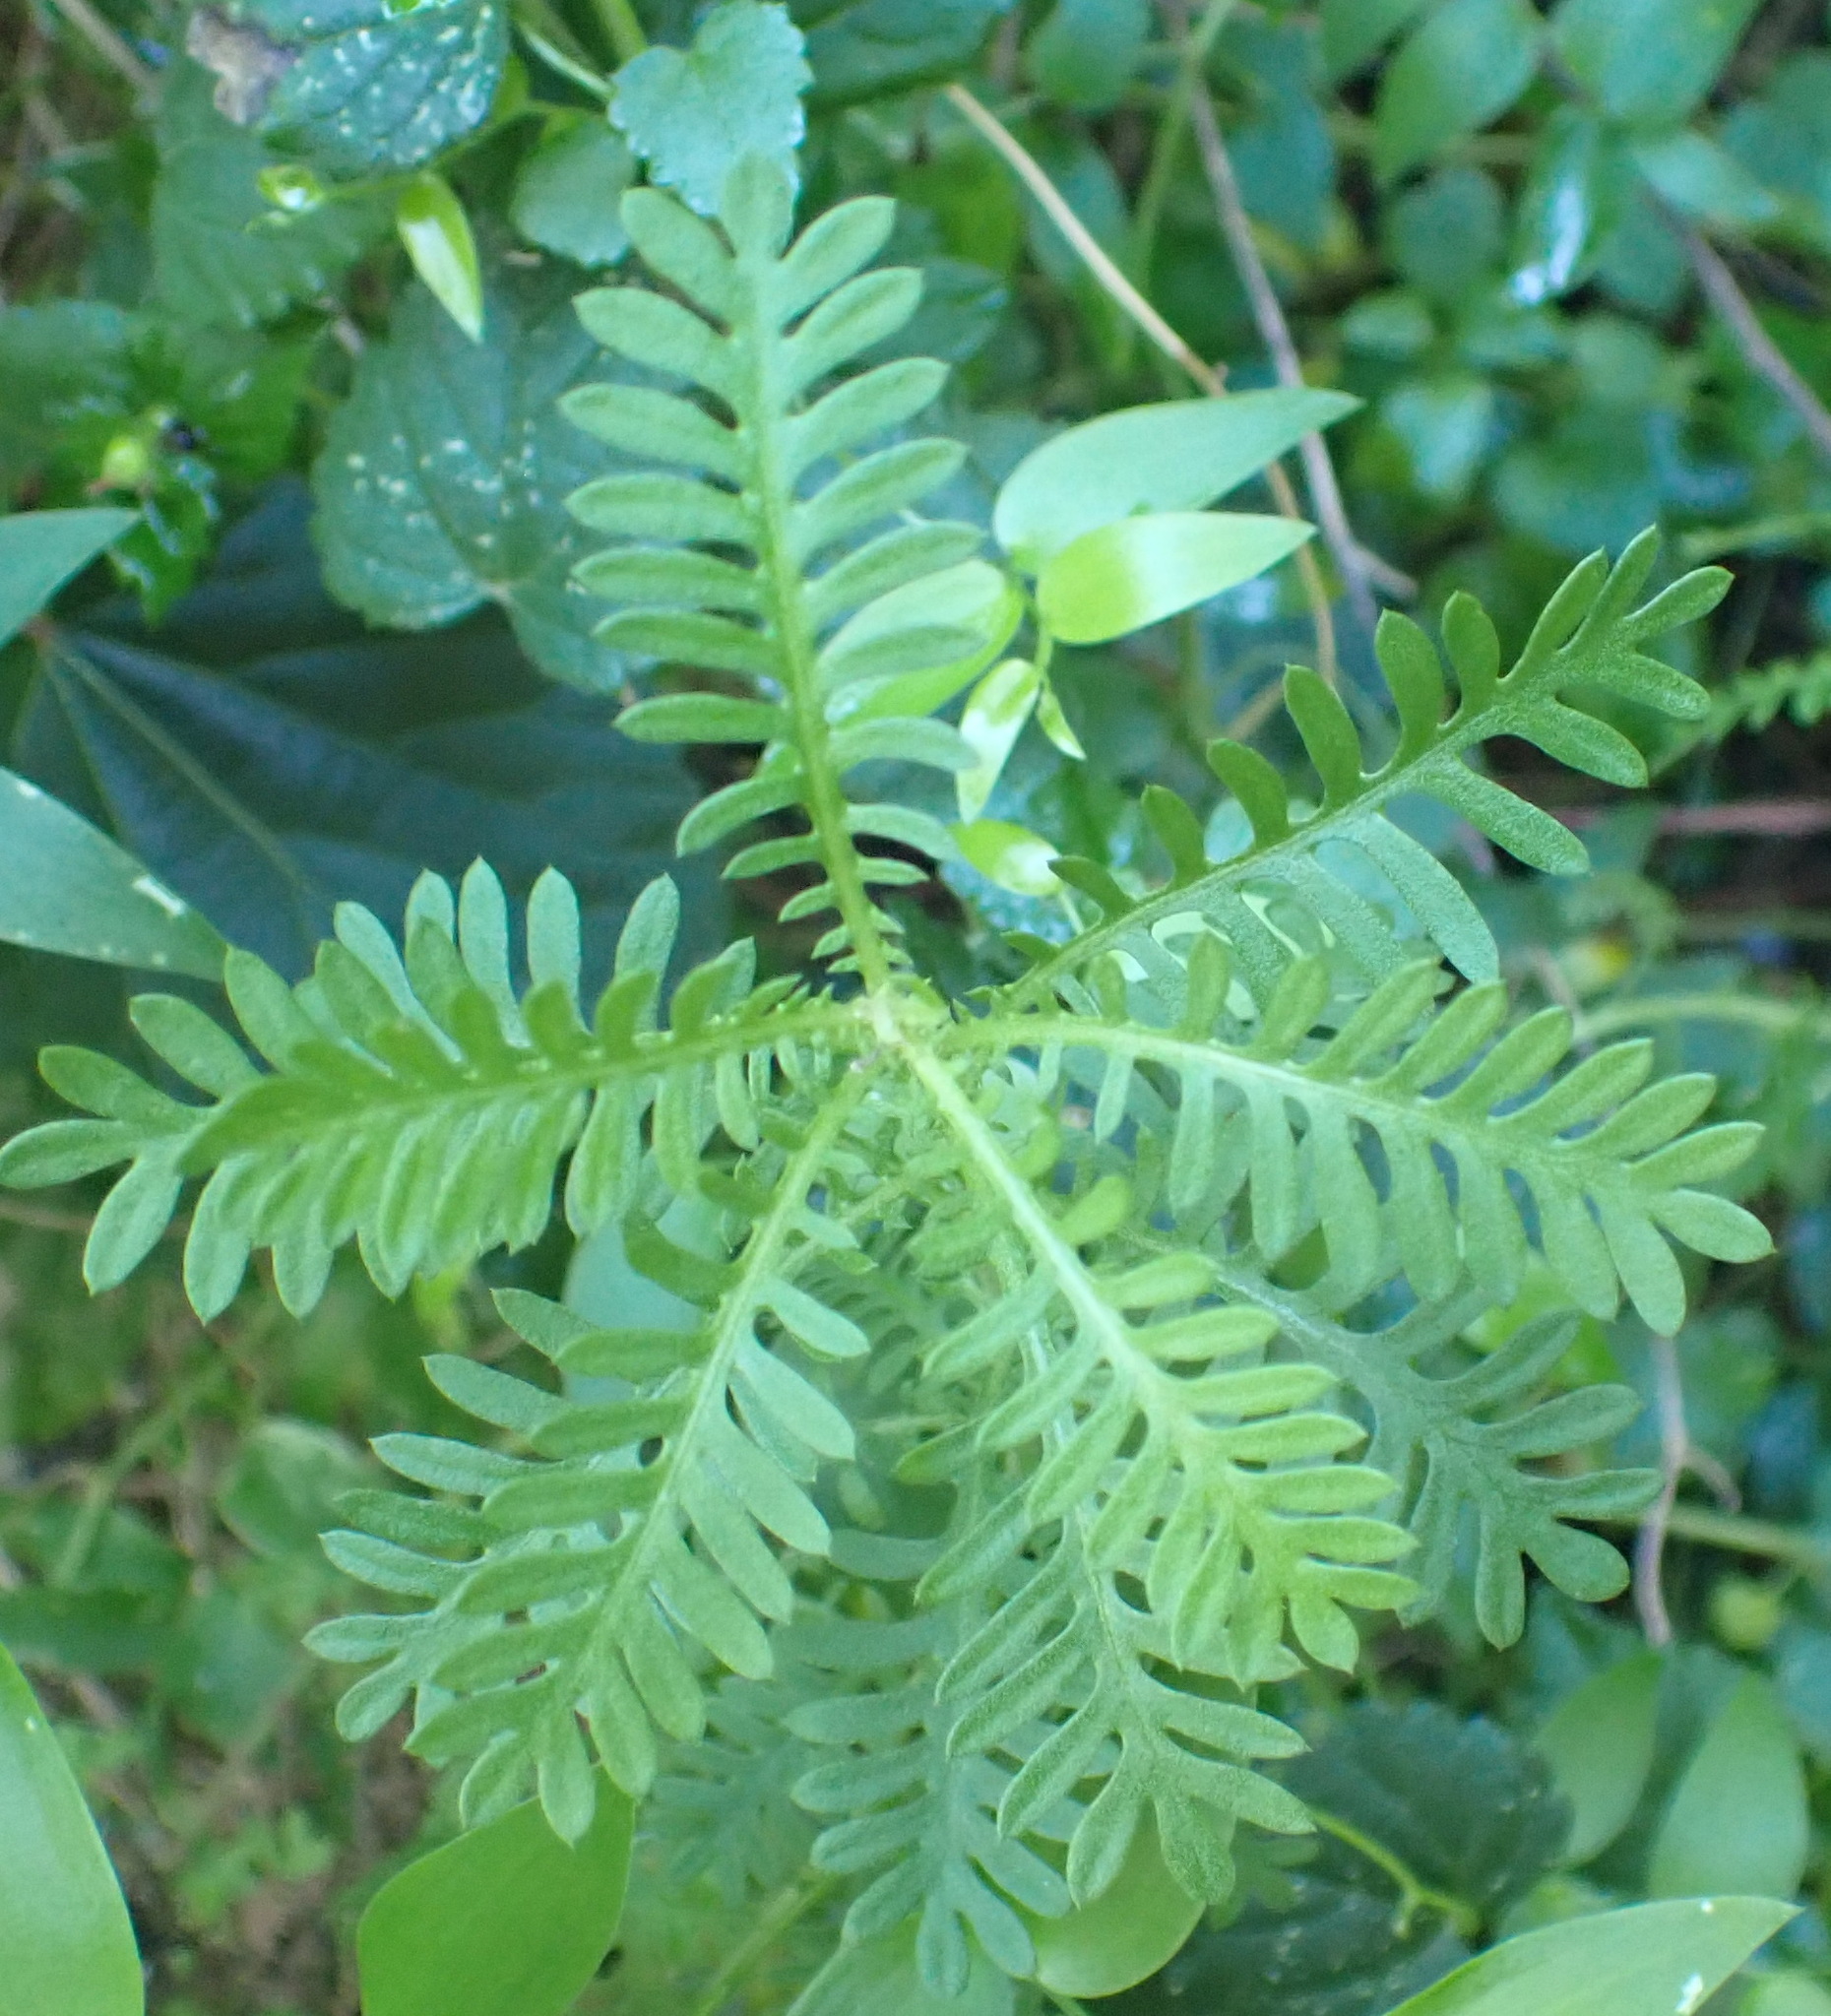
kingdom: Plantae
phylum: Tracheophyta
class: Magnoliopsida
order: Asterales
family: Asteraceae
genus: Hippia
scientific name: Hippia frutescens
